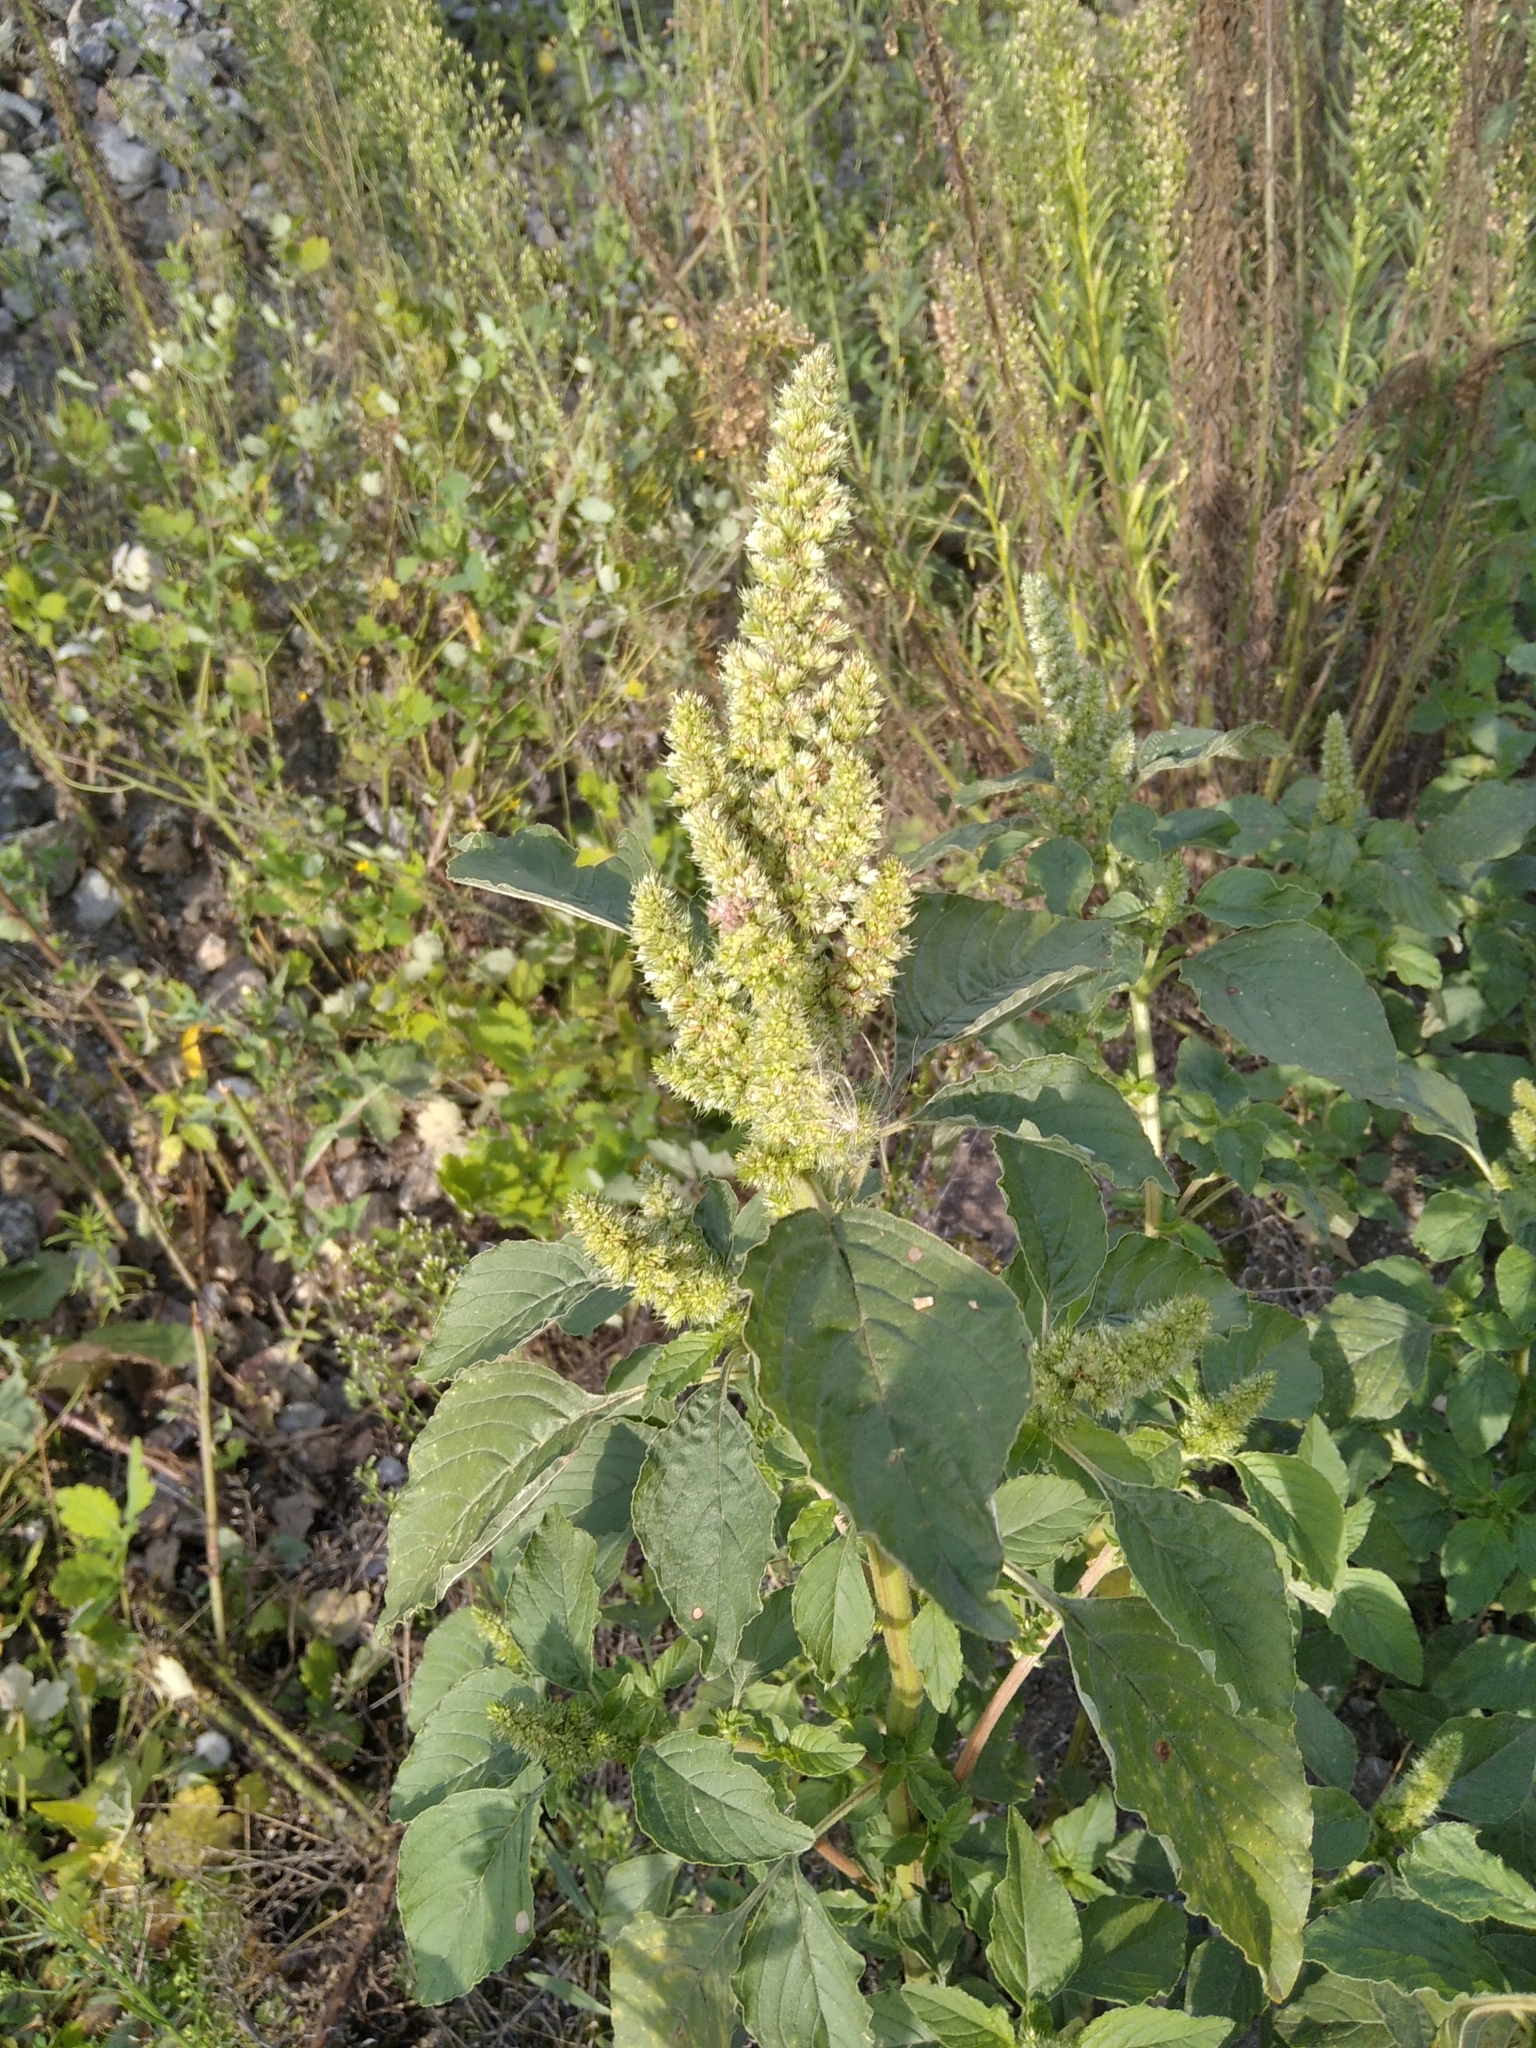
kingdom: Plantae
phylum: Tracheophyta
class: Magnoliopsida
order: Caryophyllales
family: Amaranthaceae
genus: Amaranthus
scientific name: Amaranthus retroflexus
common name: Redroot amaranth
